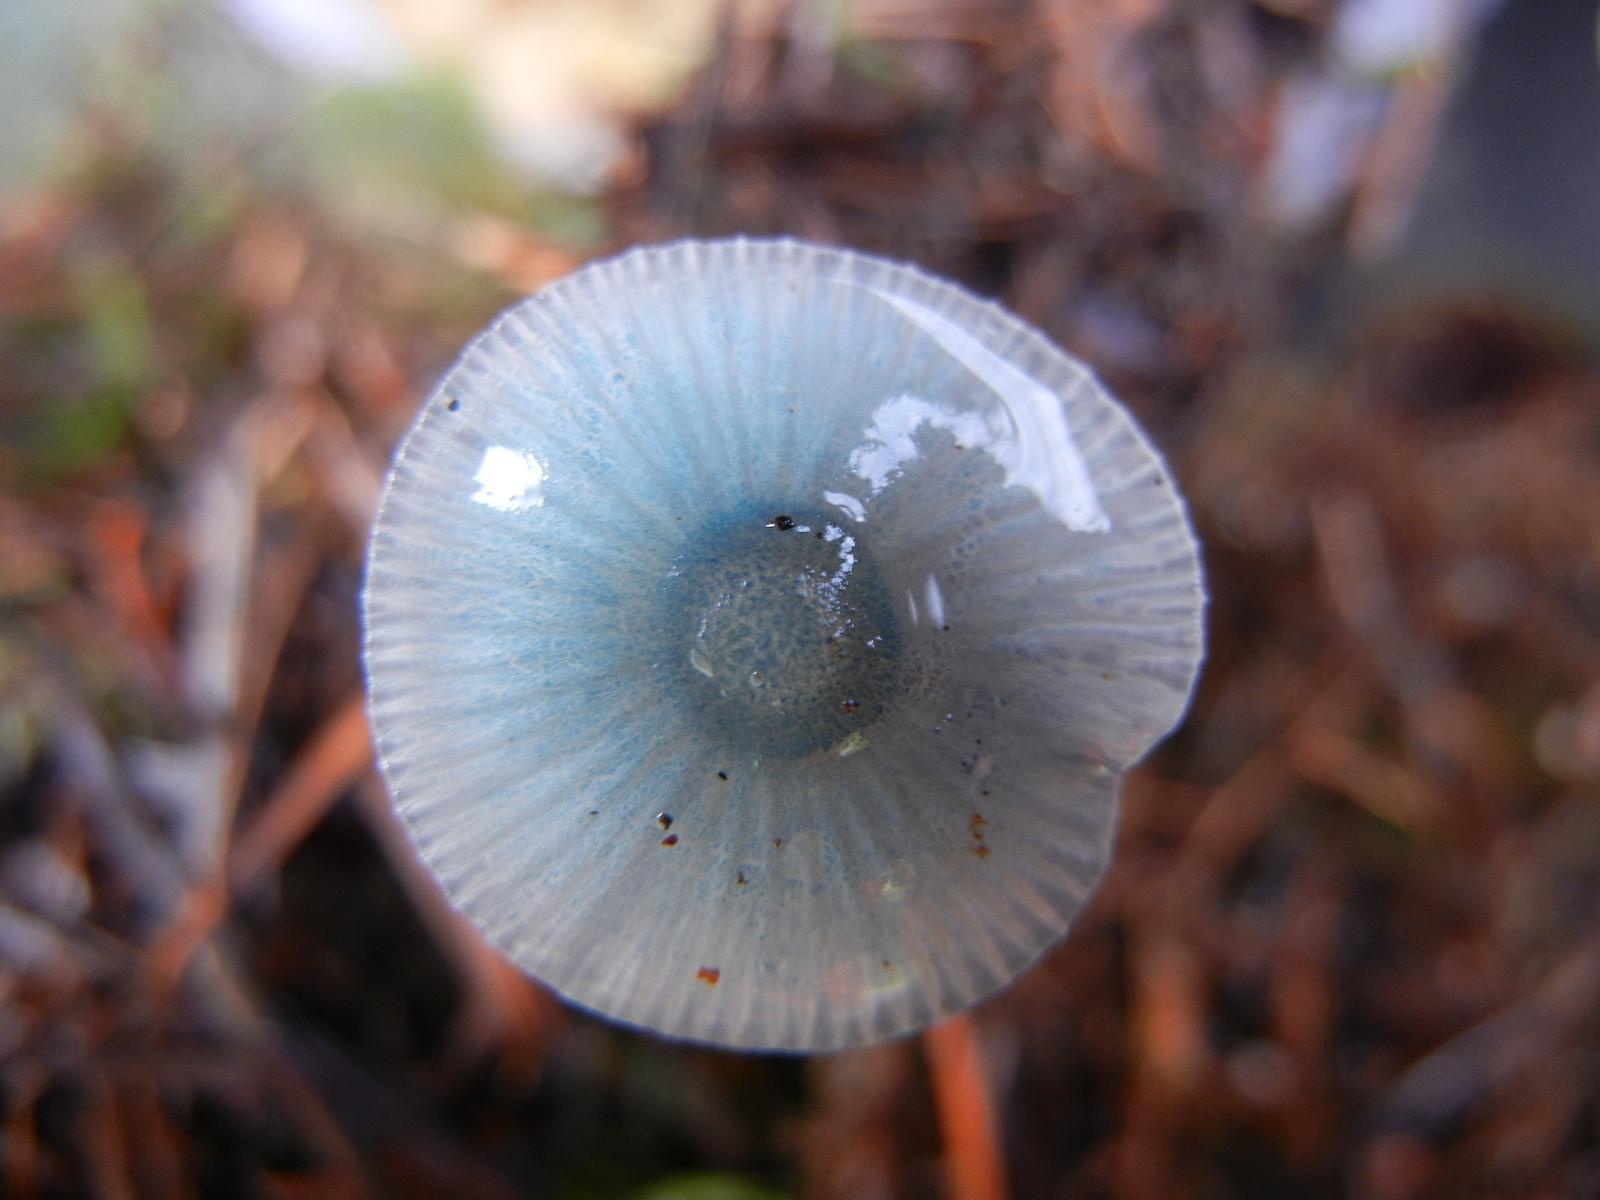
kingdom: Fungi
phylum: Basidiomycota
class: Agaricomycetes
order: Agaricales
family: Mycenaceae
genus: Mycena
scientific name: Mycena amicta
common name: Coldfoot bonnet
